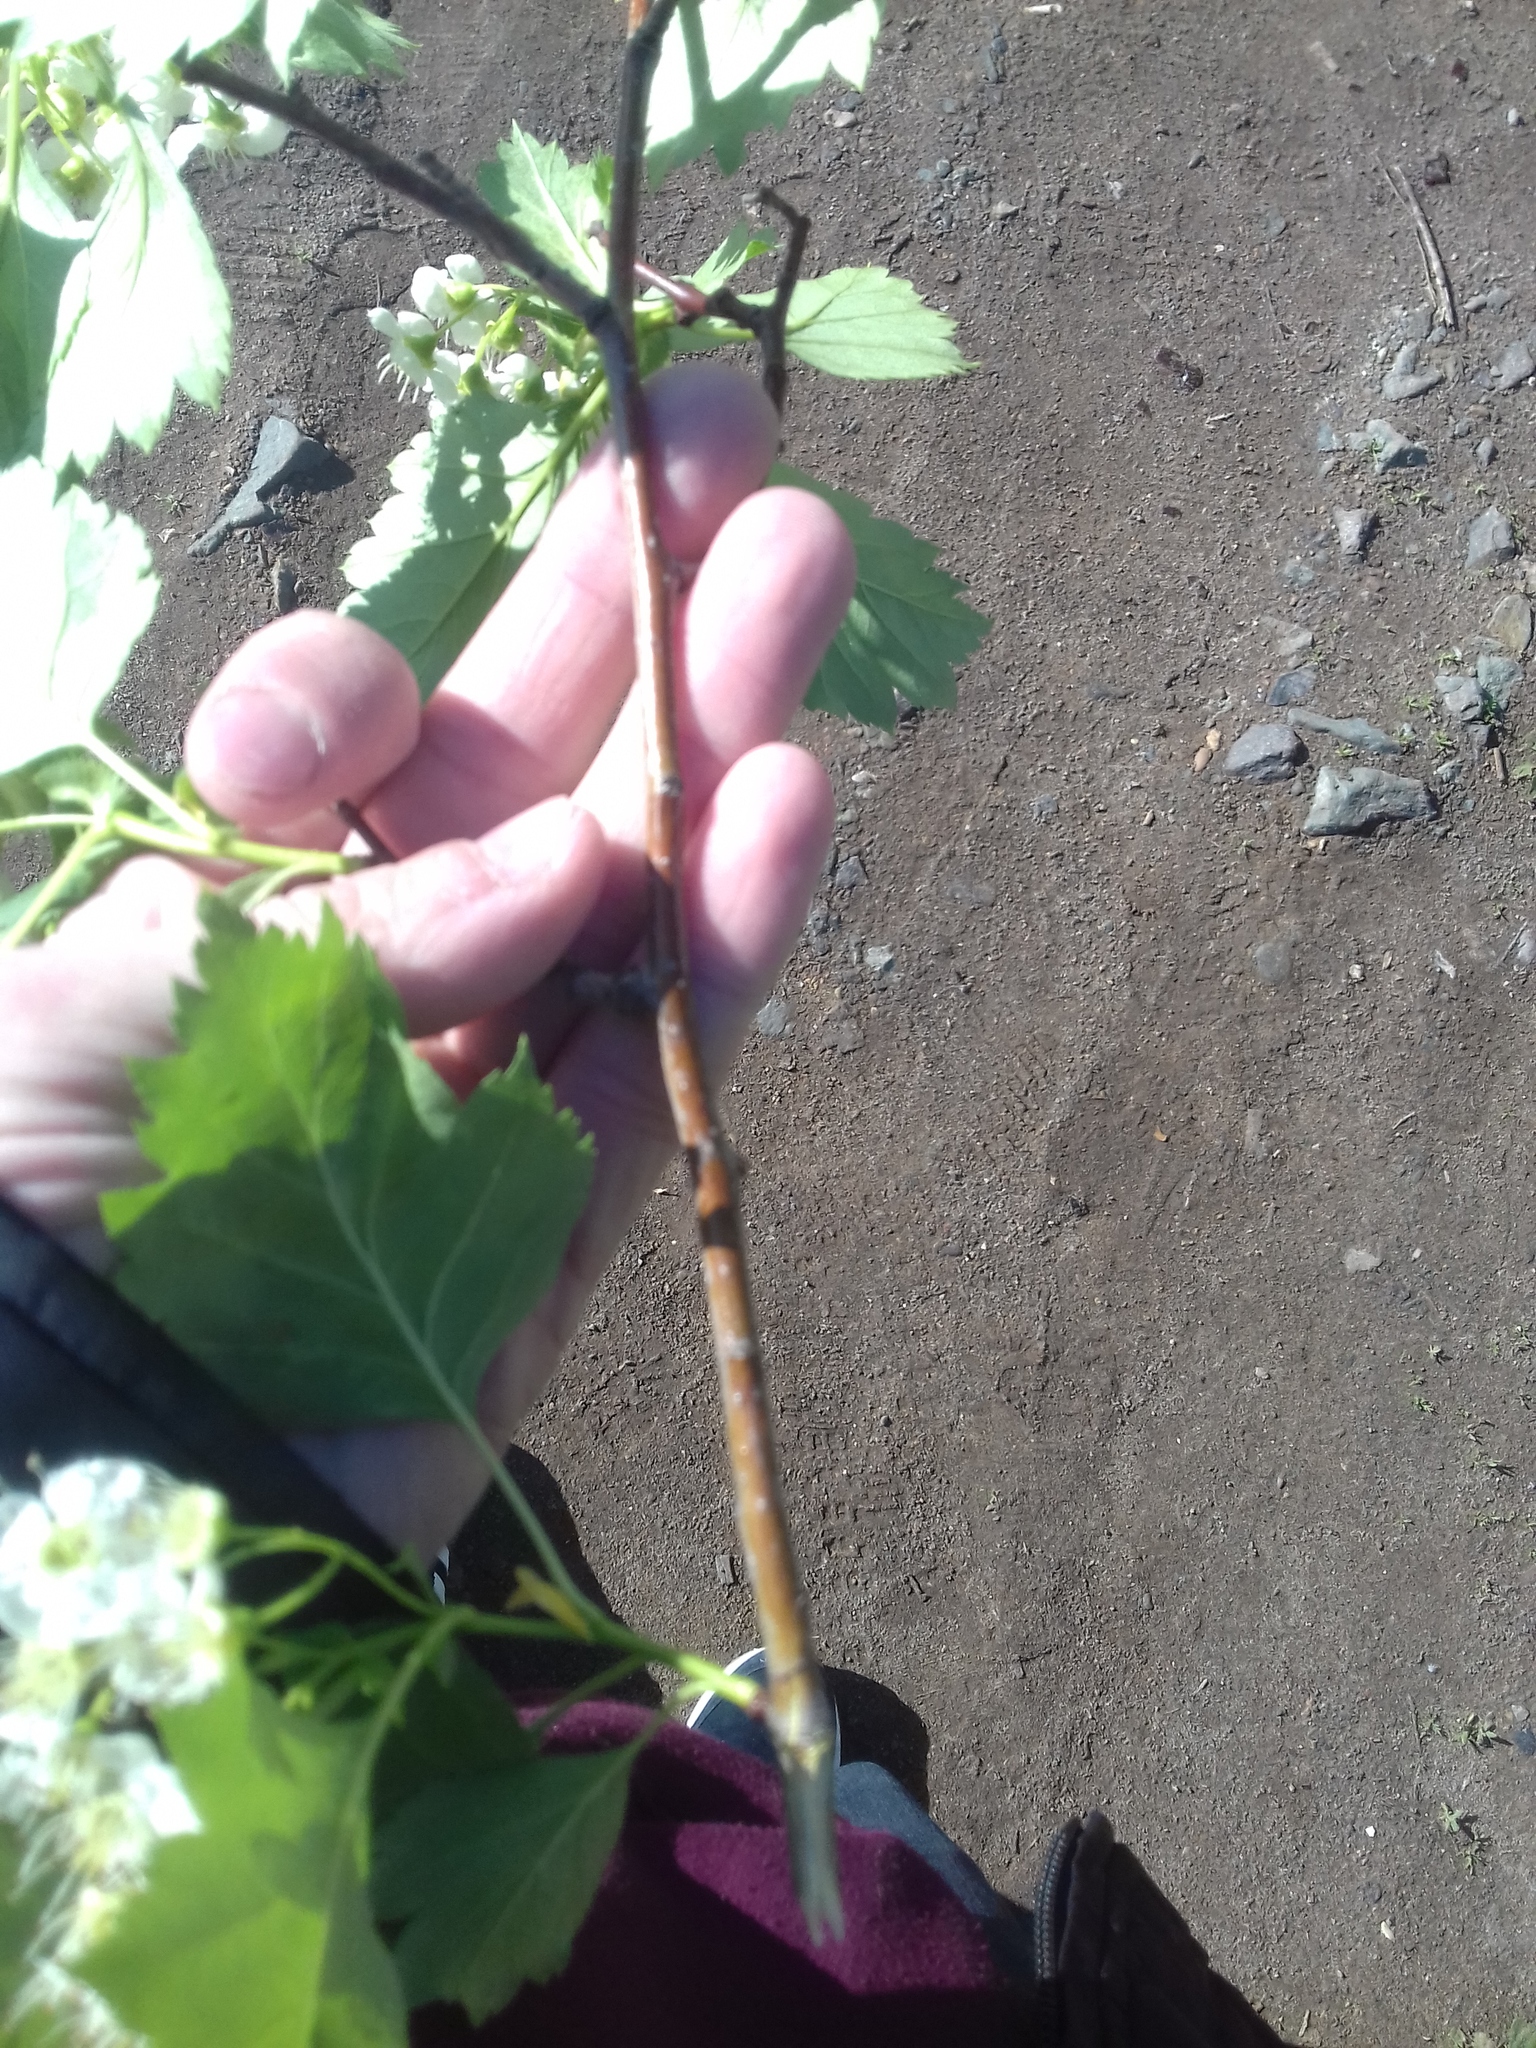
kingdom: Plantae
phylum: Tracheophyta
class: Magnoliopsida
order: Rosales
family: Rosaceae
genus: Crataegus
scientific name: Crataegus sanguinea
